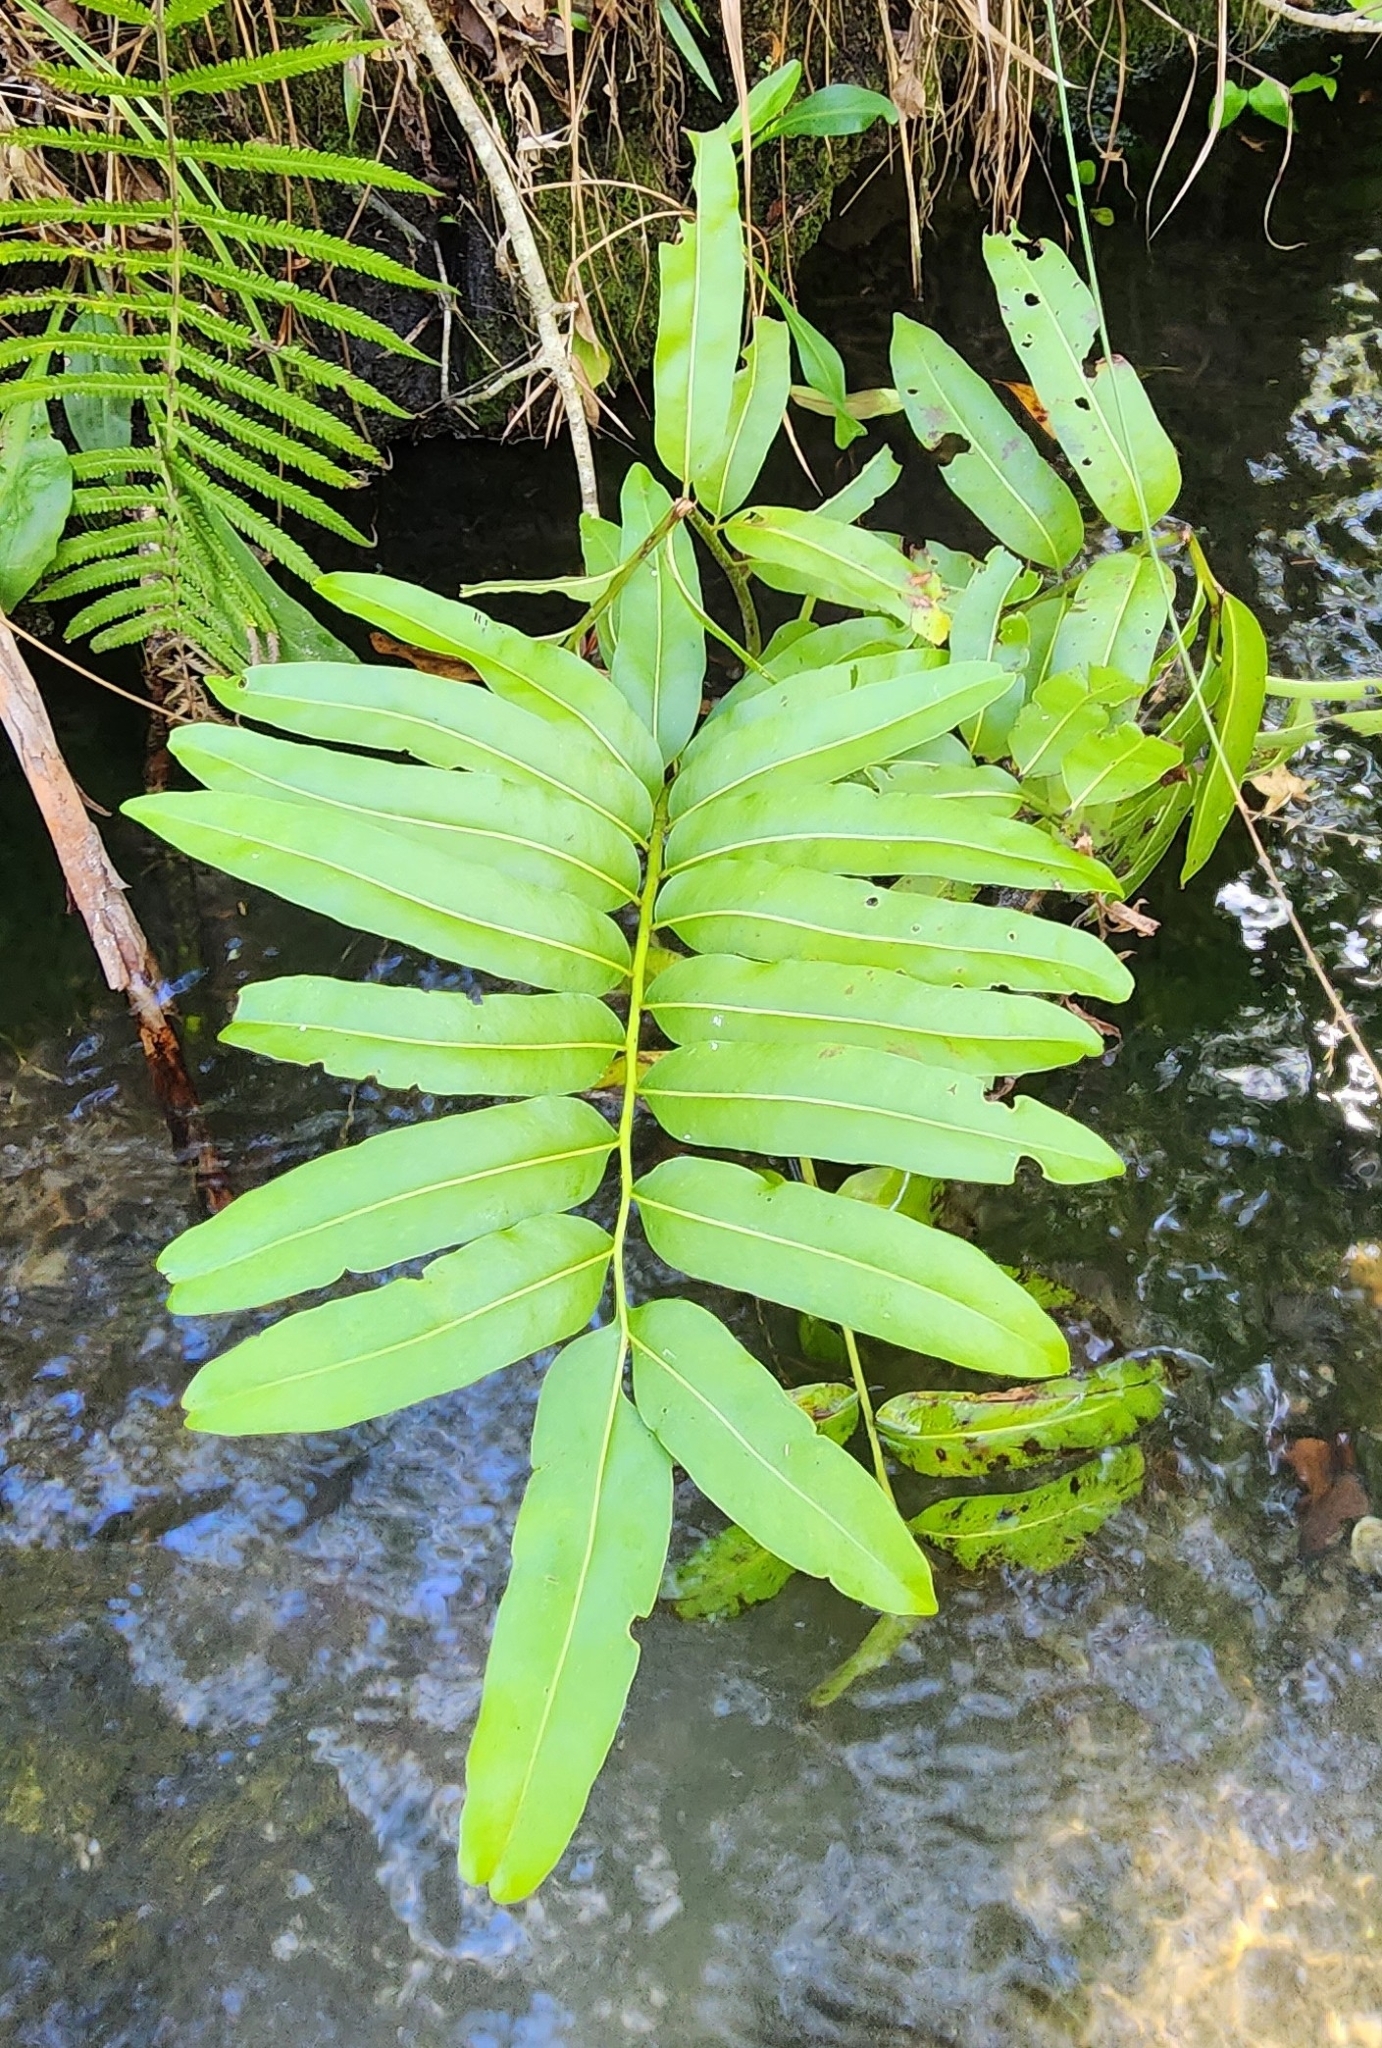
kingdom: Plantae
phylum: Tracheophyta
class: Polypodiopsida
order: Polypodiales
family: Pteridaceae
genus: Acrostichum
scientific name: Acrostichum danaeifolium
